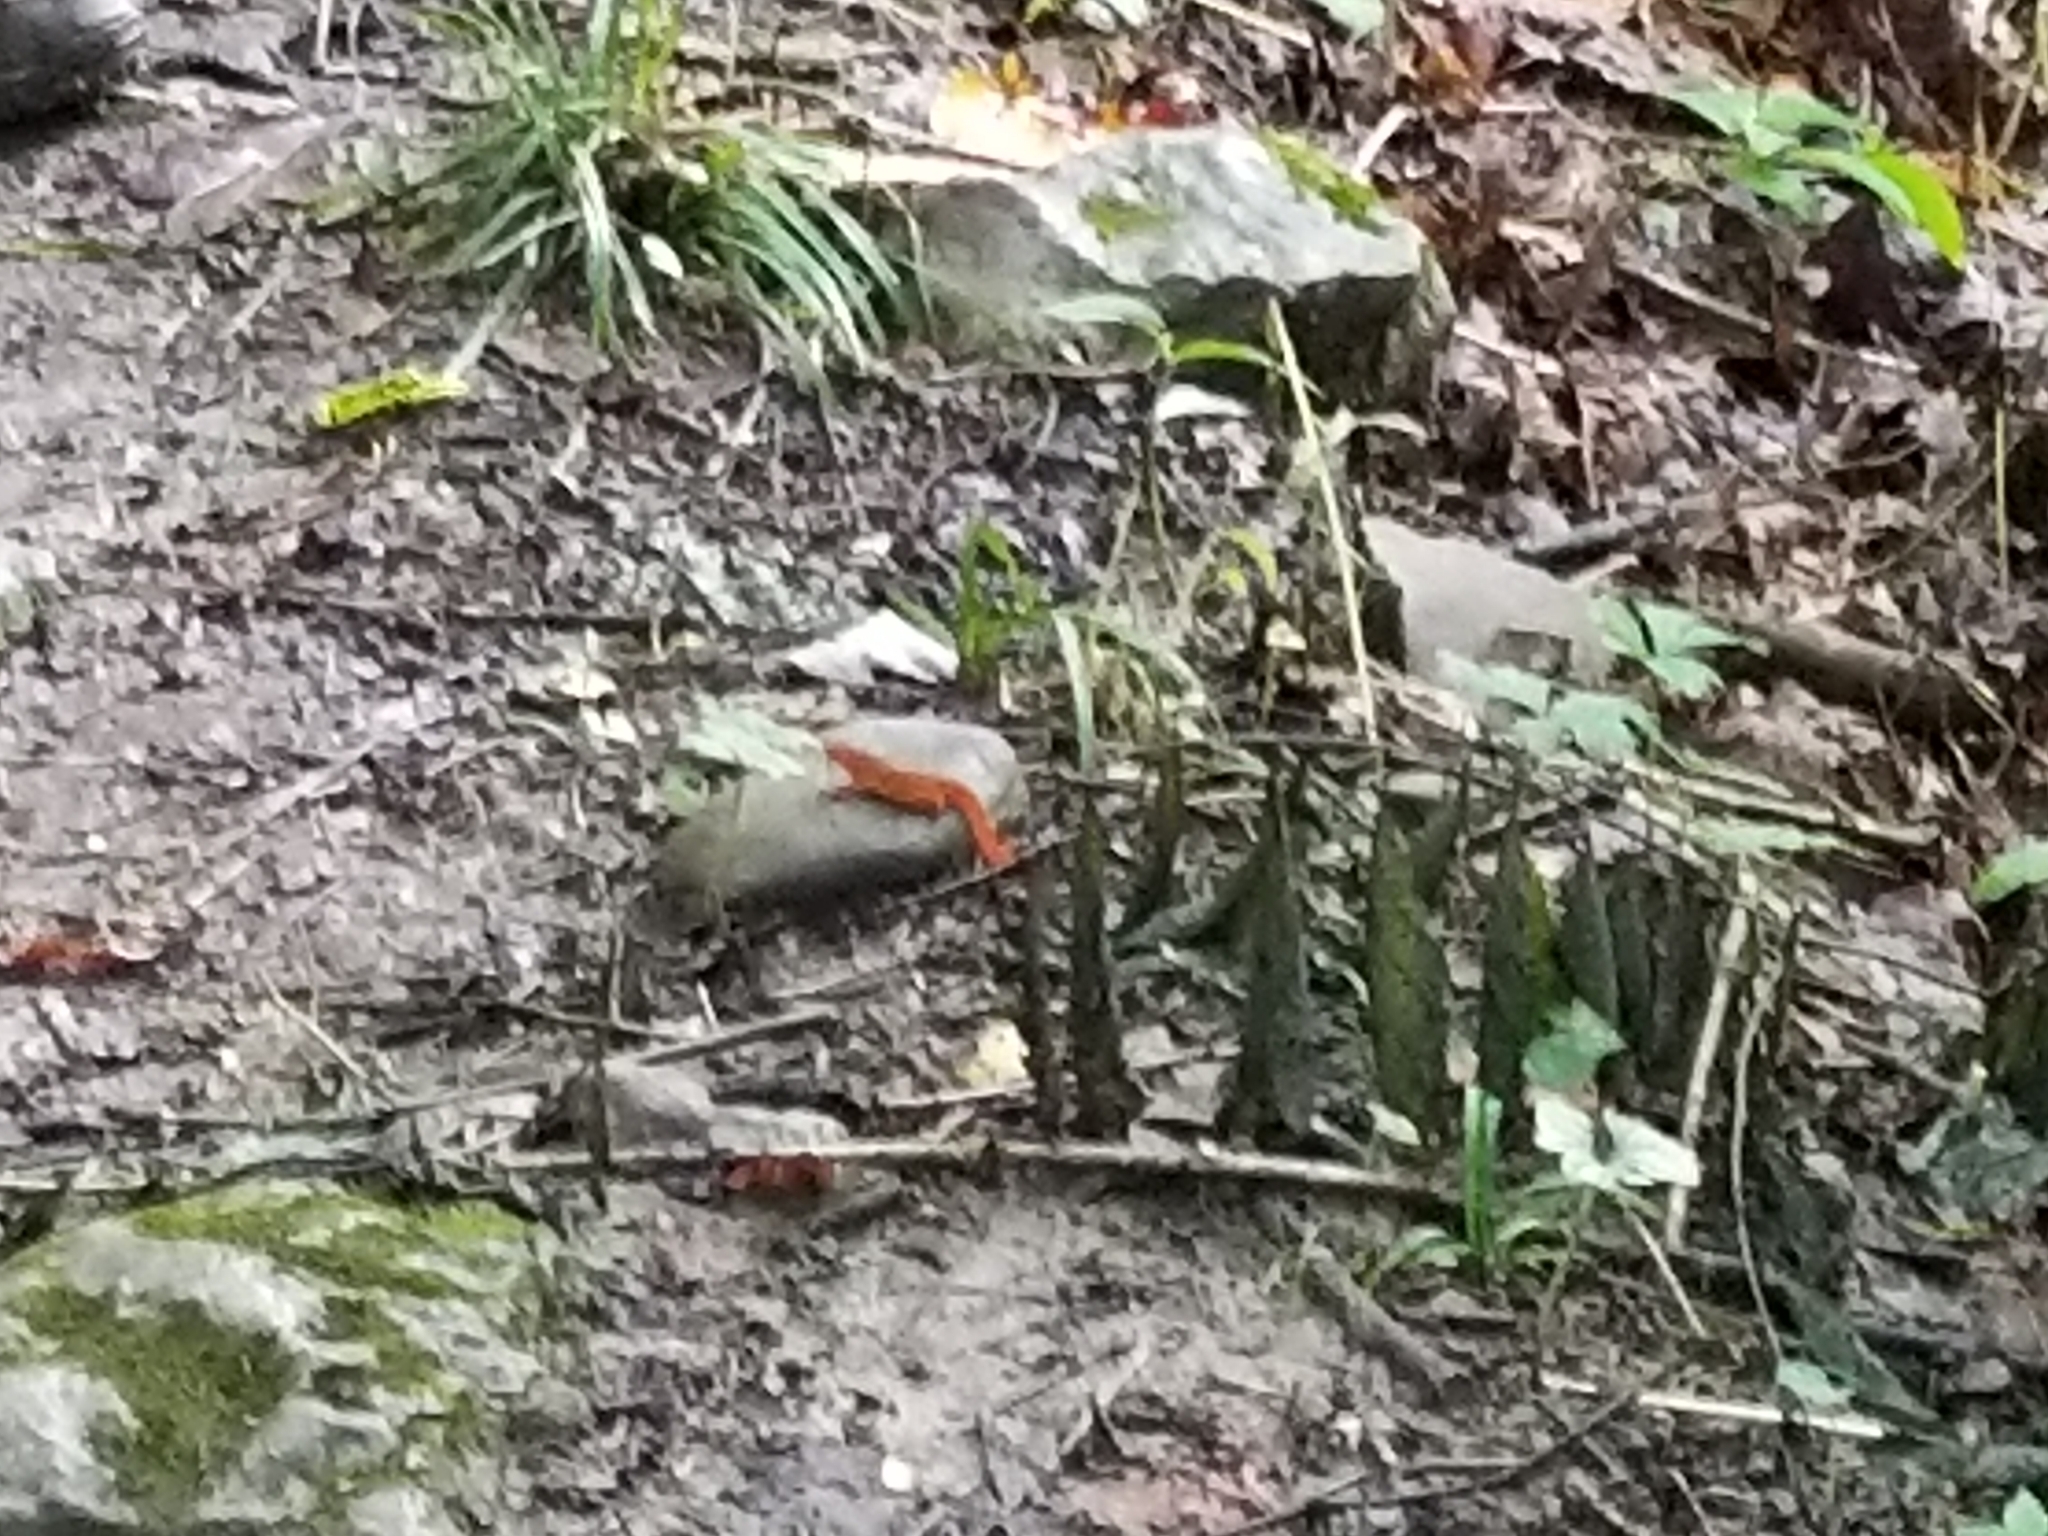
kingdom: Animalia
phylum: Chordata
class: Amphibia
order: Caudata
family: Salamandridae
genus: Notophthalmus
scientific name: Notophthalmus viridescens
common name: Eastern newt
